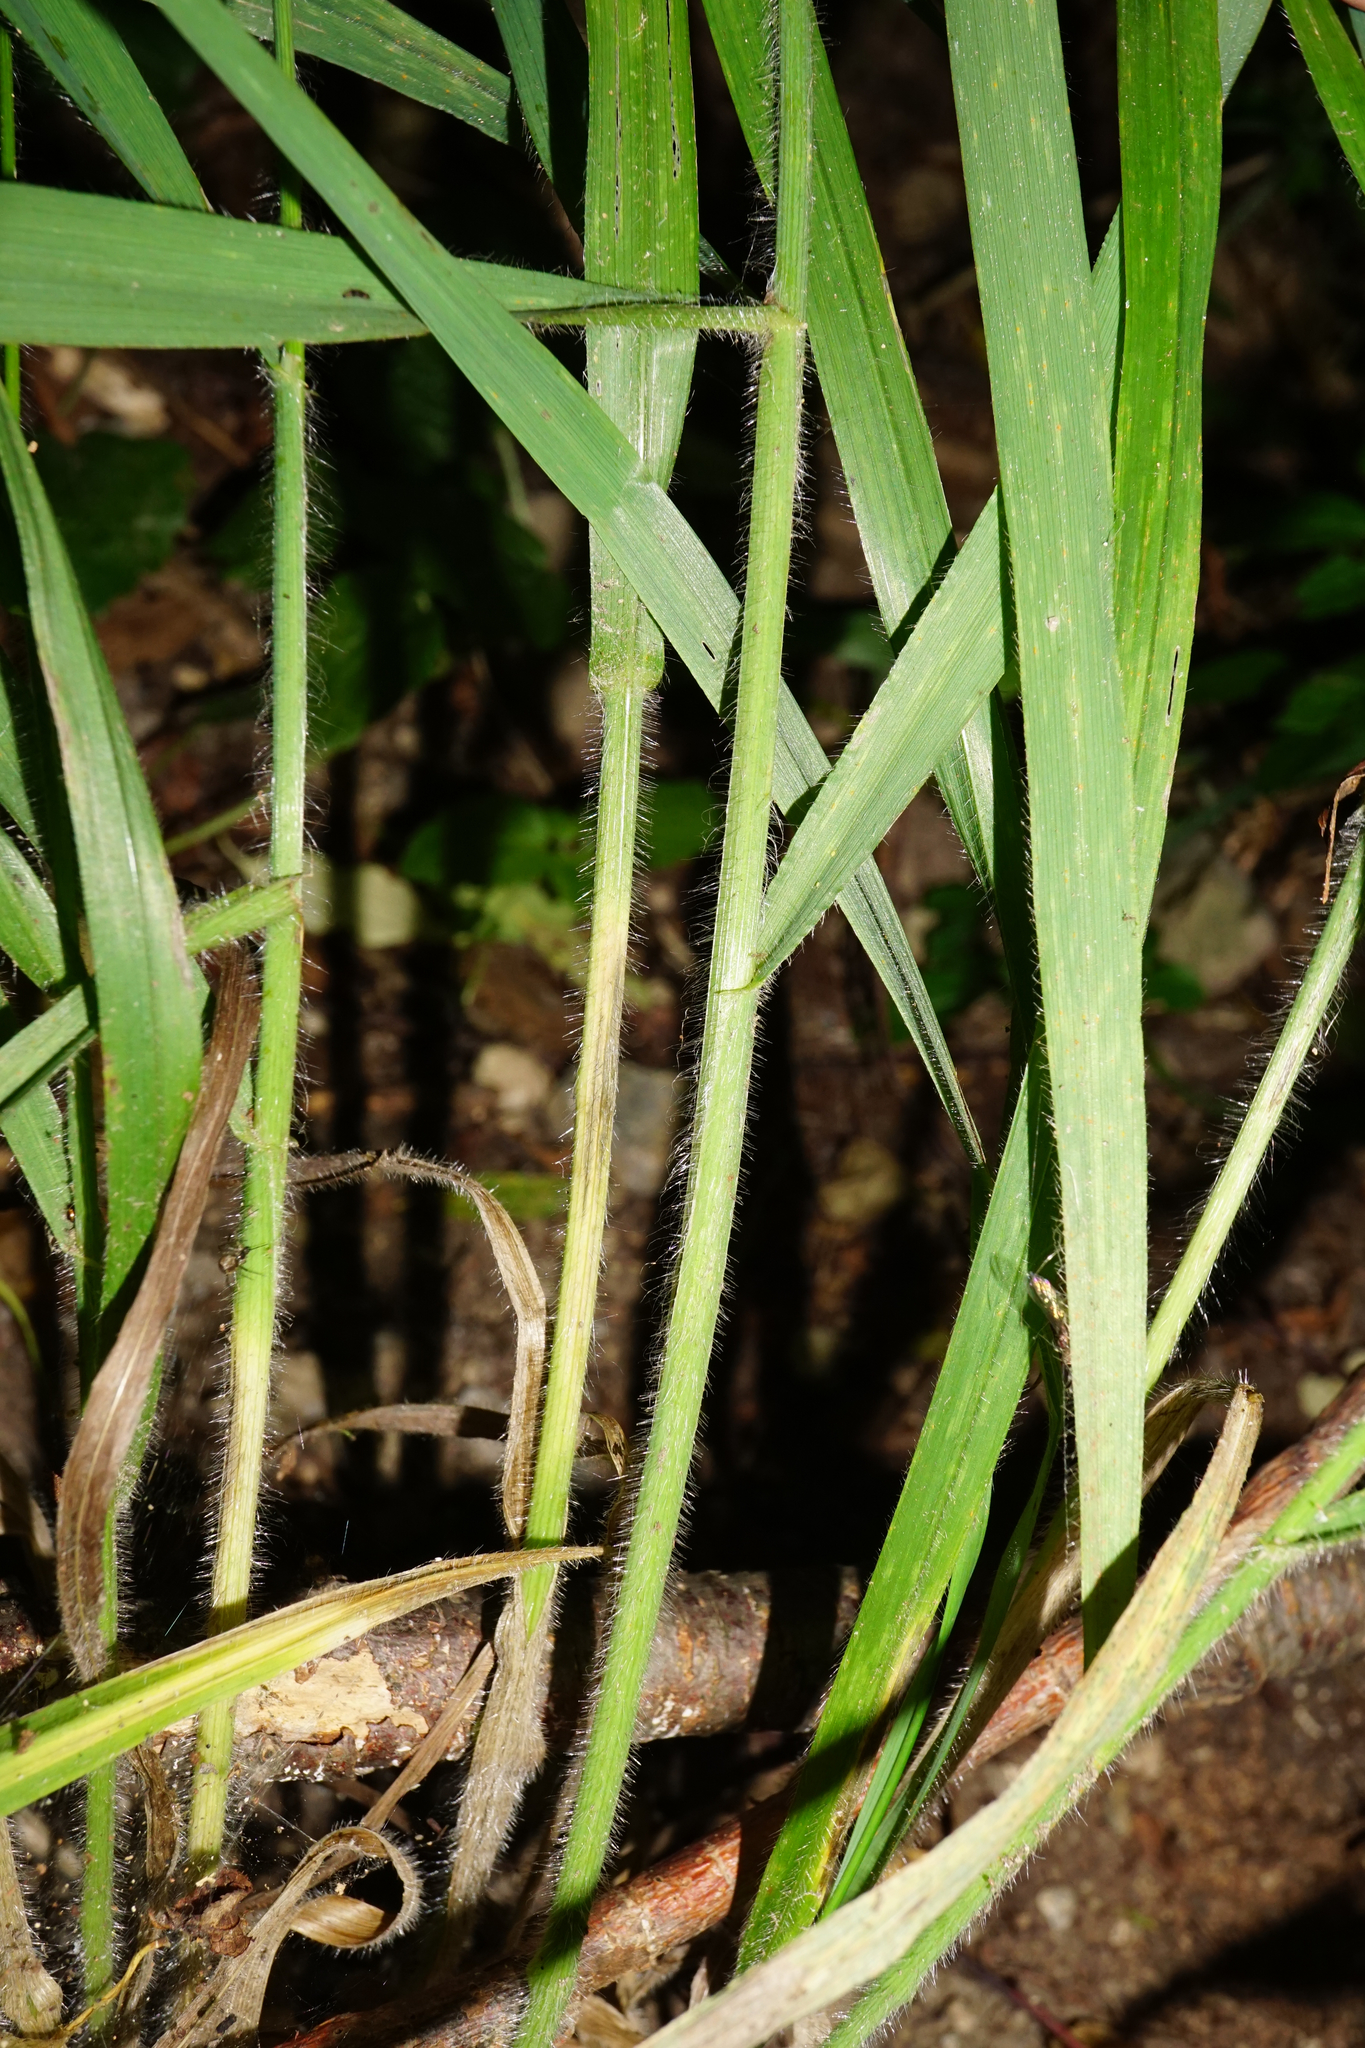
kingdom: Plantae
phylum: Tracheophyta
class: Liliopsida
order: Poales
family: Poaceae
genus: Bromus
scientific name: Bromus ramosus
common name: Hairy brome
